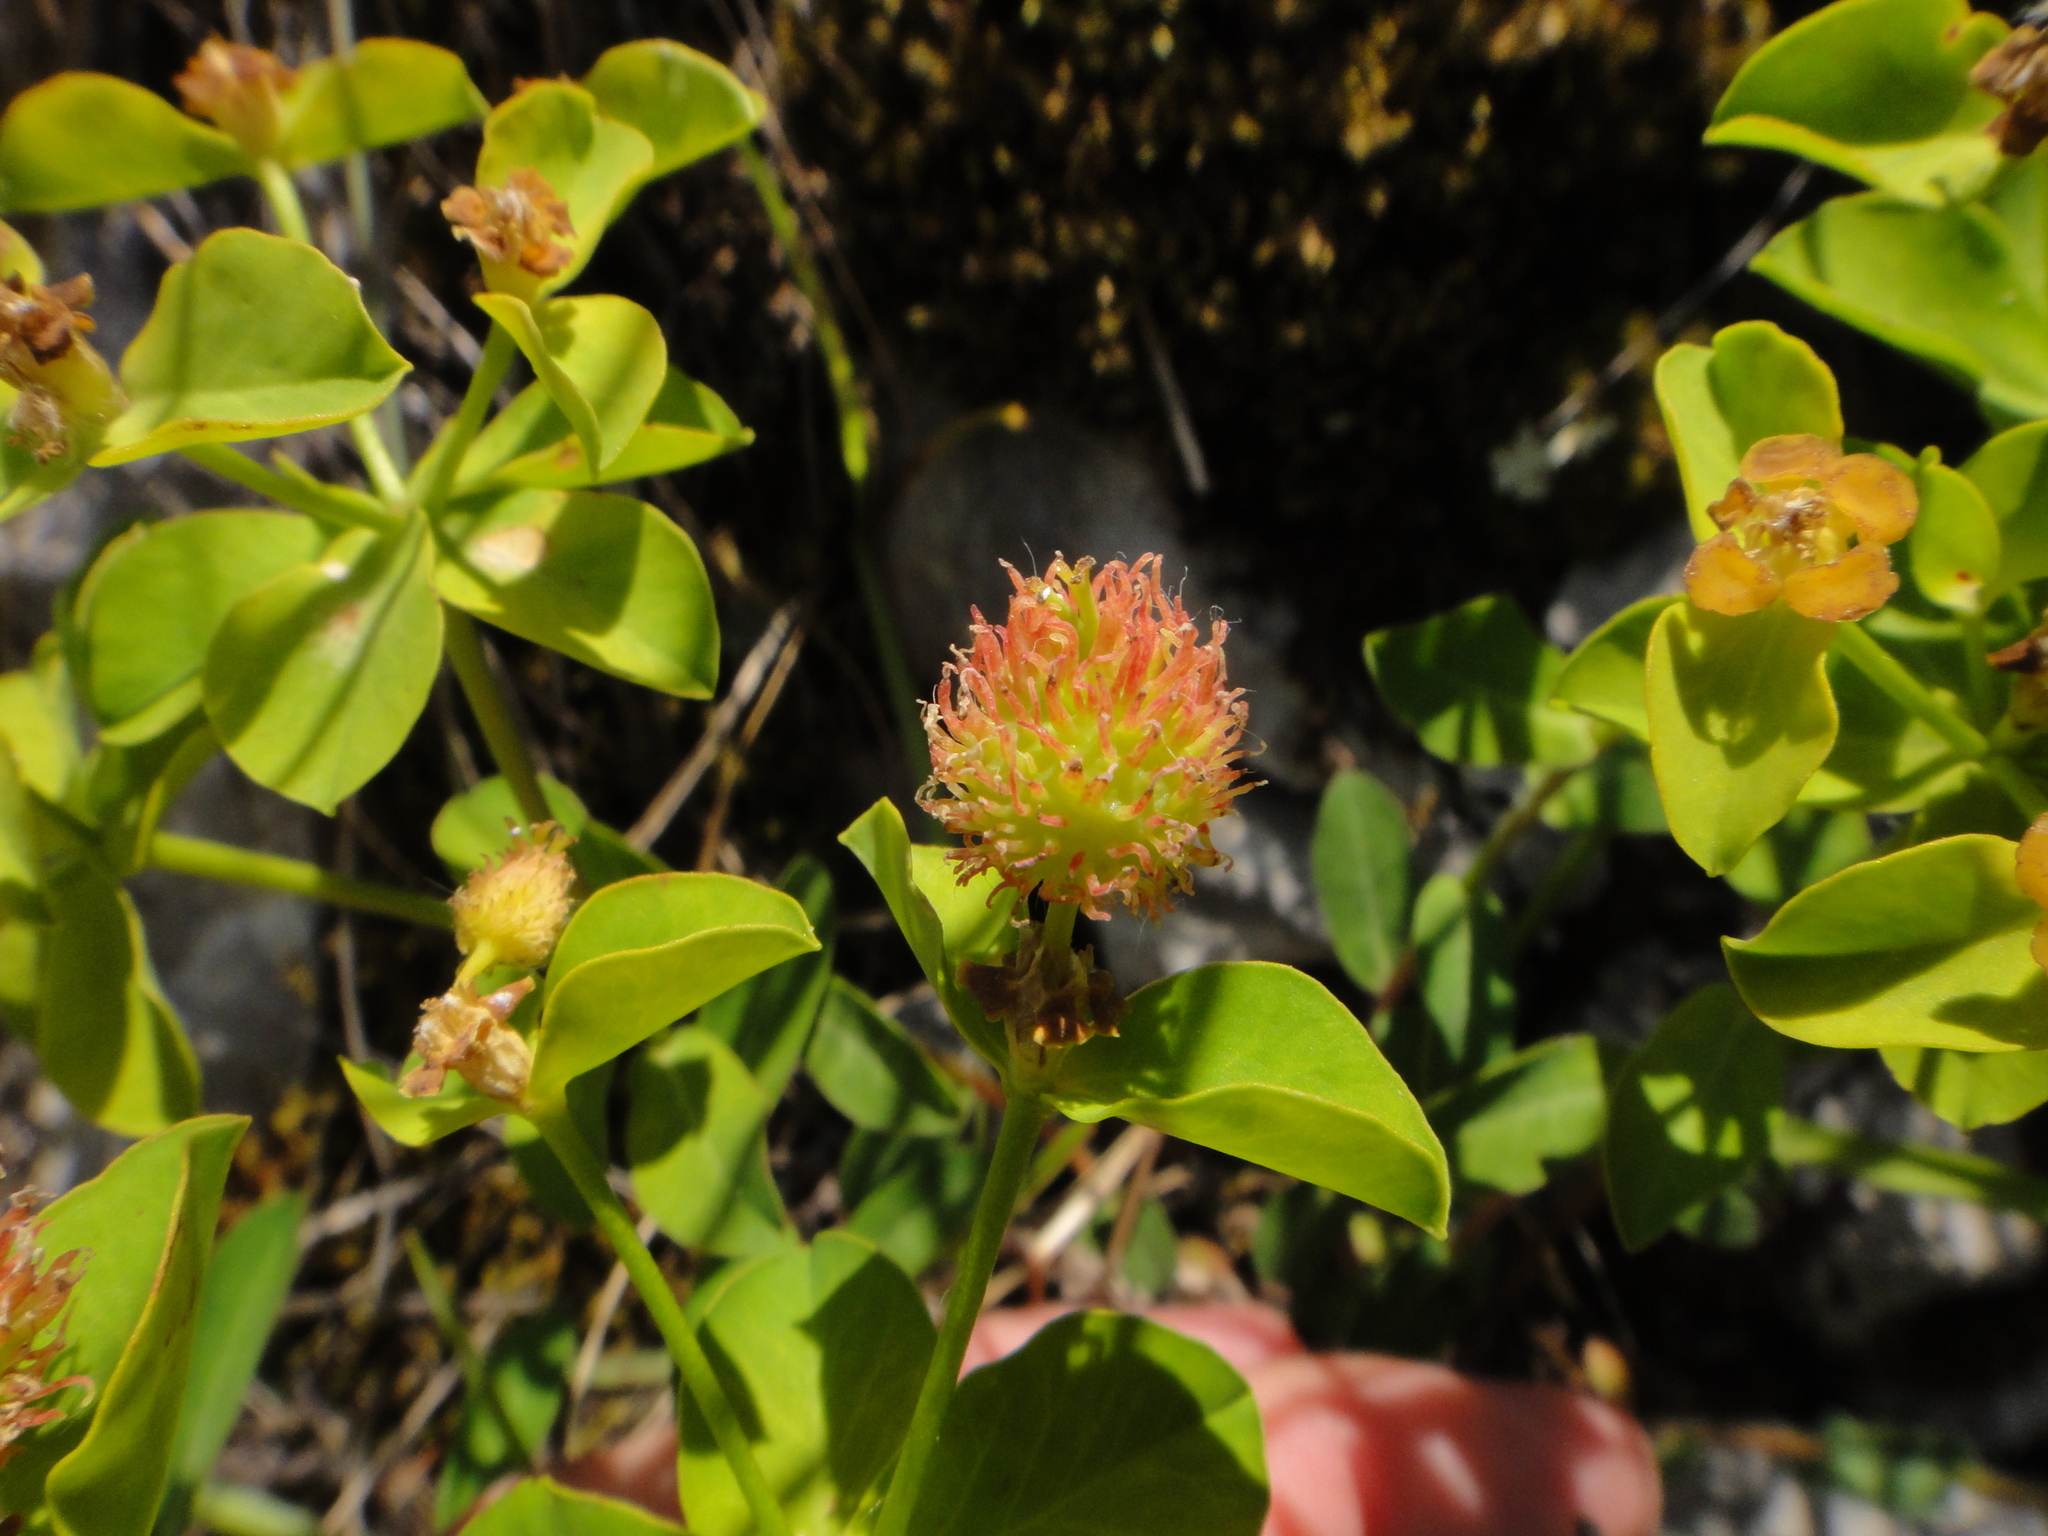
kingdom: Plantae
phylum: Tracheophyta
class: Magnoliopsida
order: Malpighiales
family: Euphorbiaceae
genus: Euphorbia
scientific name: Euphorbia fragifera
